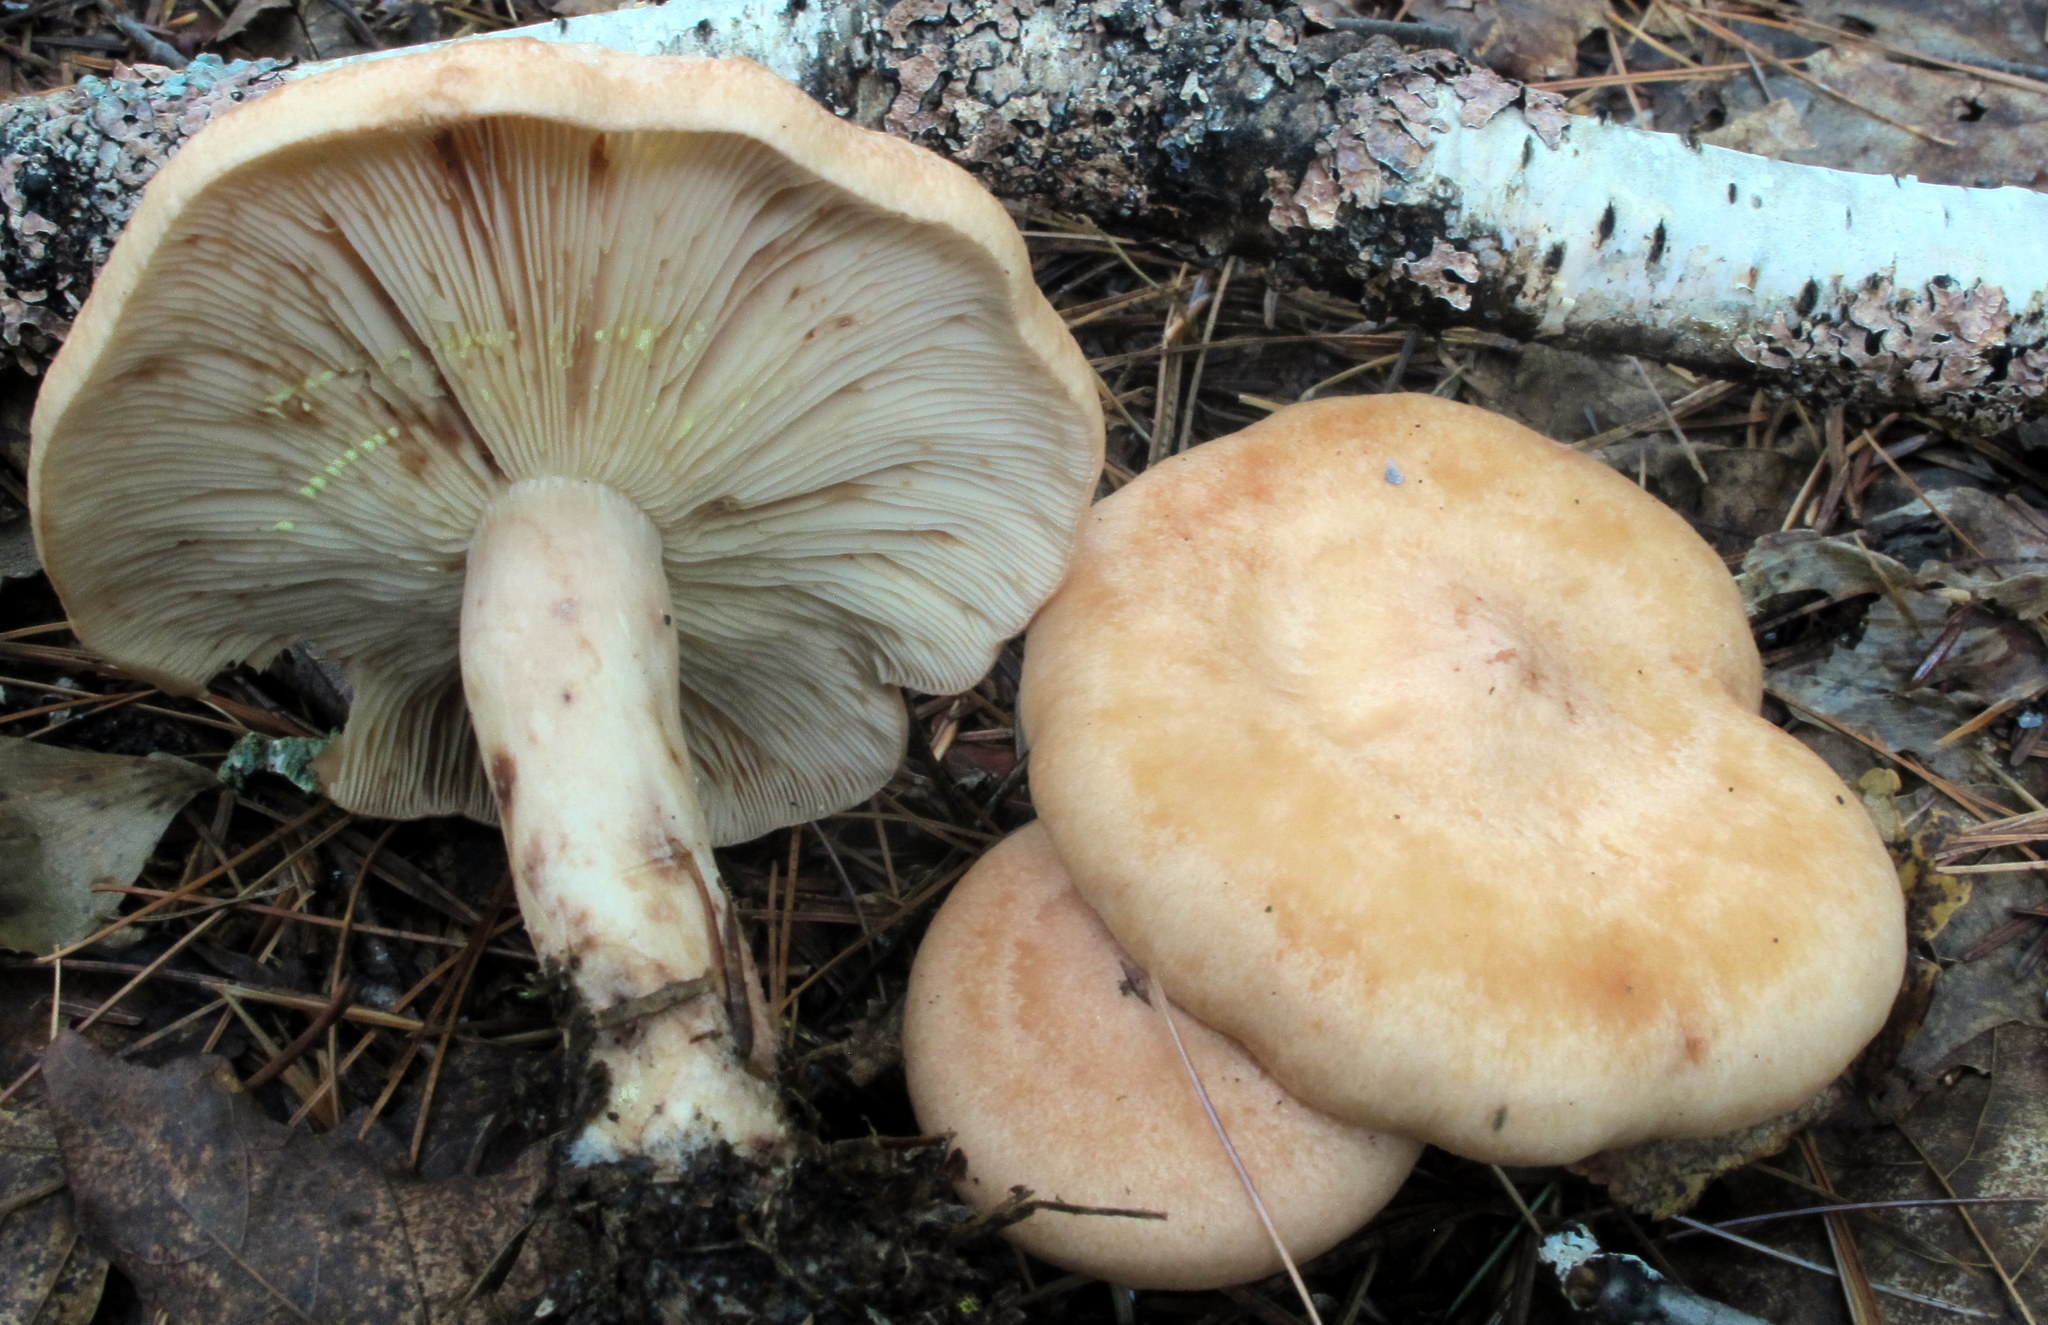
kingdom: Fungi
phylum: Basidiomycota
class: Agaricomycetes
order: Russulales
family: Russulaceae
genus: Lactarius
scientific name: Lactarius vinaceorufescens
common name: Yellow-latex milkcap
